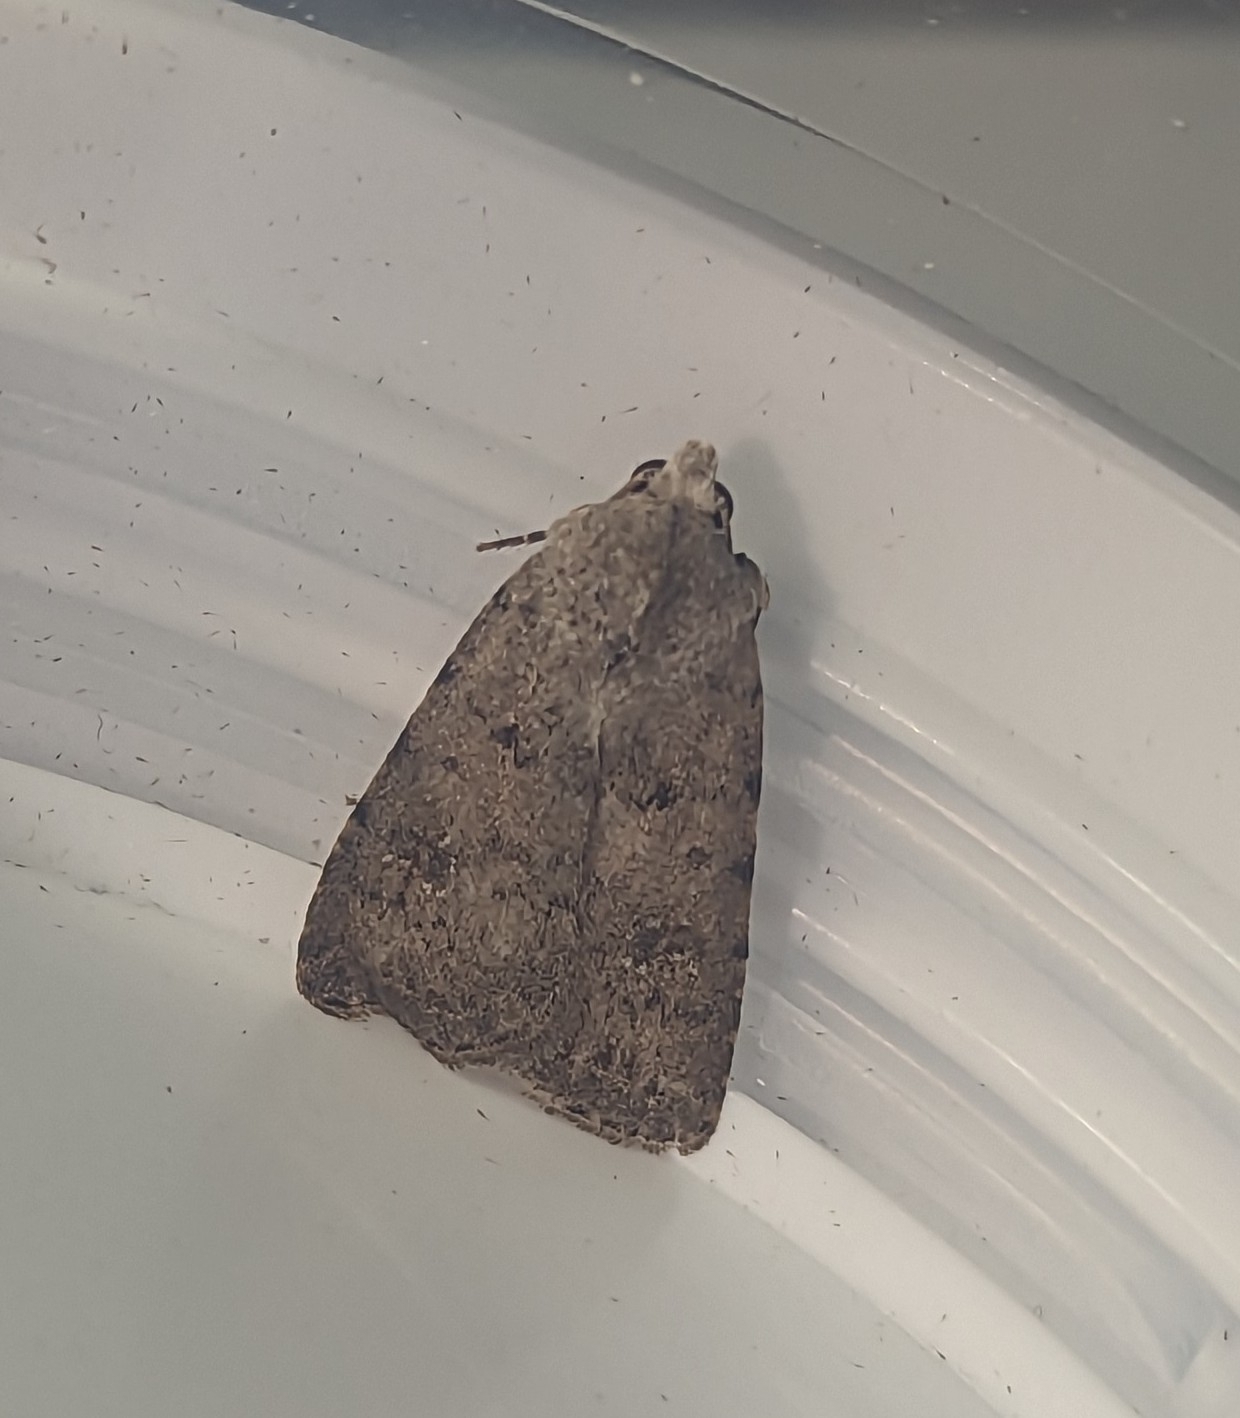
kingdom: Animalia
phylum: Arthropoda
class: Insecta
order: Lepidoptera
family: Noctuidae
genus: Caradrina
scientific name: Caradrina clavipalpis
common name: Pale mottled willow
